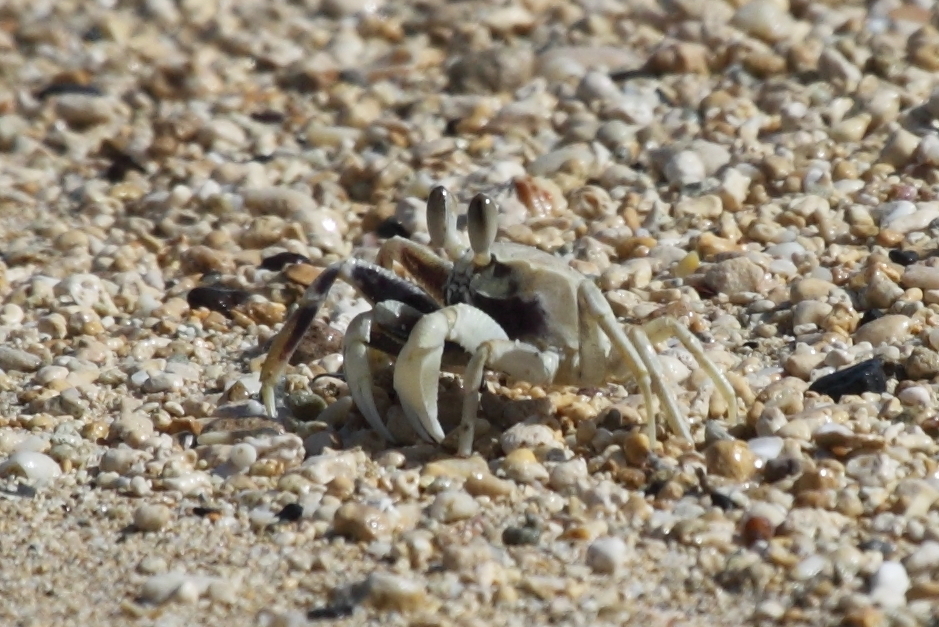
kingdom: Animalia
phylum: Arthropoda
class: Malacostraca
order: Decapoda
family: Ocypodidae
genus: Ocypode
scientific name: Ocypode pallidula
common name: Pallid ghost crab
